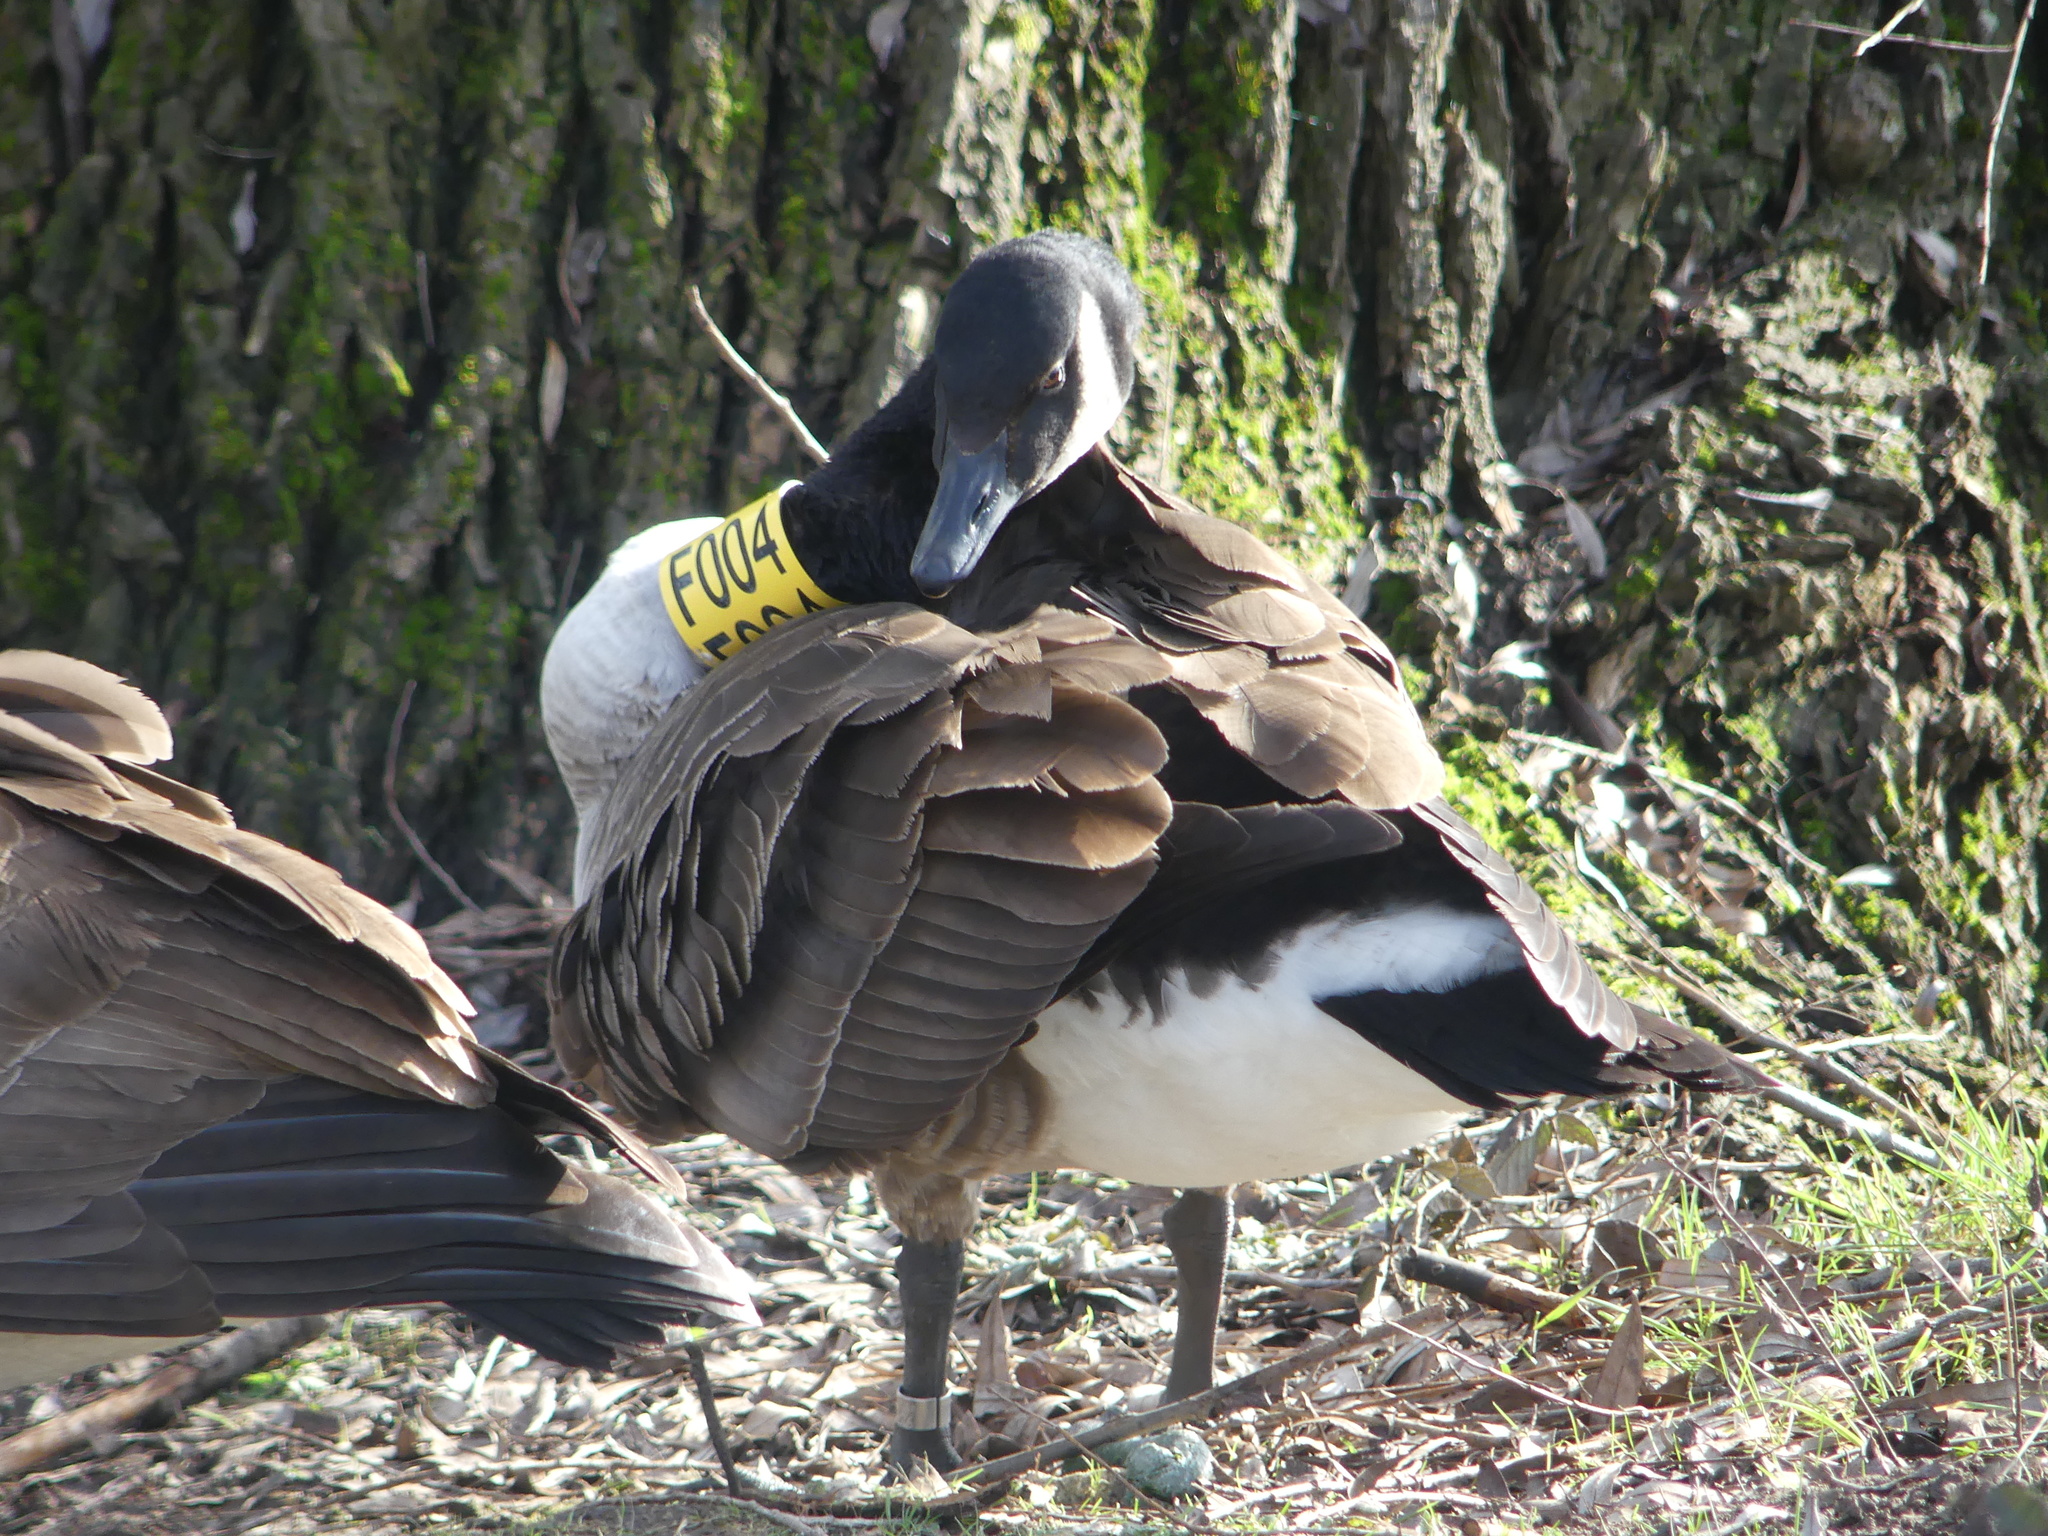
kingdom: Animalia
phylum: Chordata
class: Aves
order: Anseriformes
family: Anatidae
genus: Branta
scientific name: Branta canadensis
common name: Canada goose
